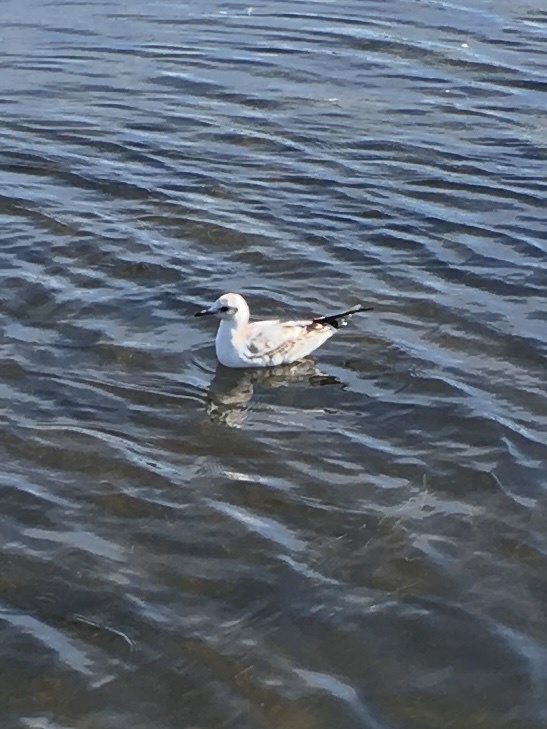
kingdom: Animalia
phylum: Chordata
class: Aves
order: Charadriiformes
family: Laridae
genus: Chroicocephalus
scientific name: Chroicocephalus ridibundus
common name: Black-headed gull
